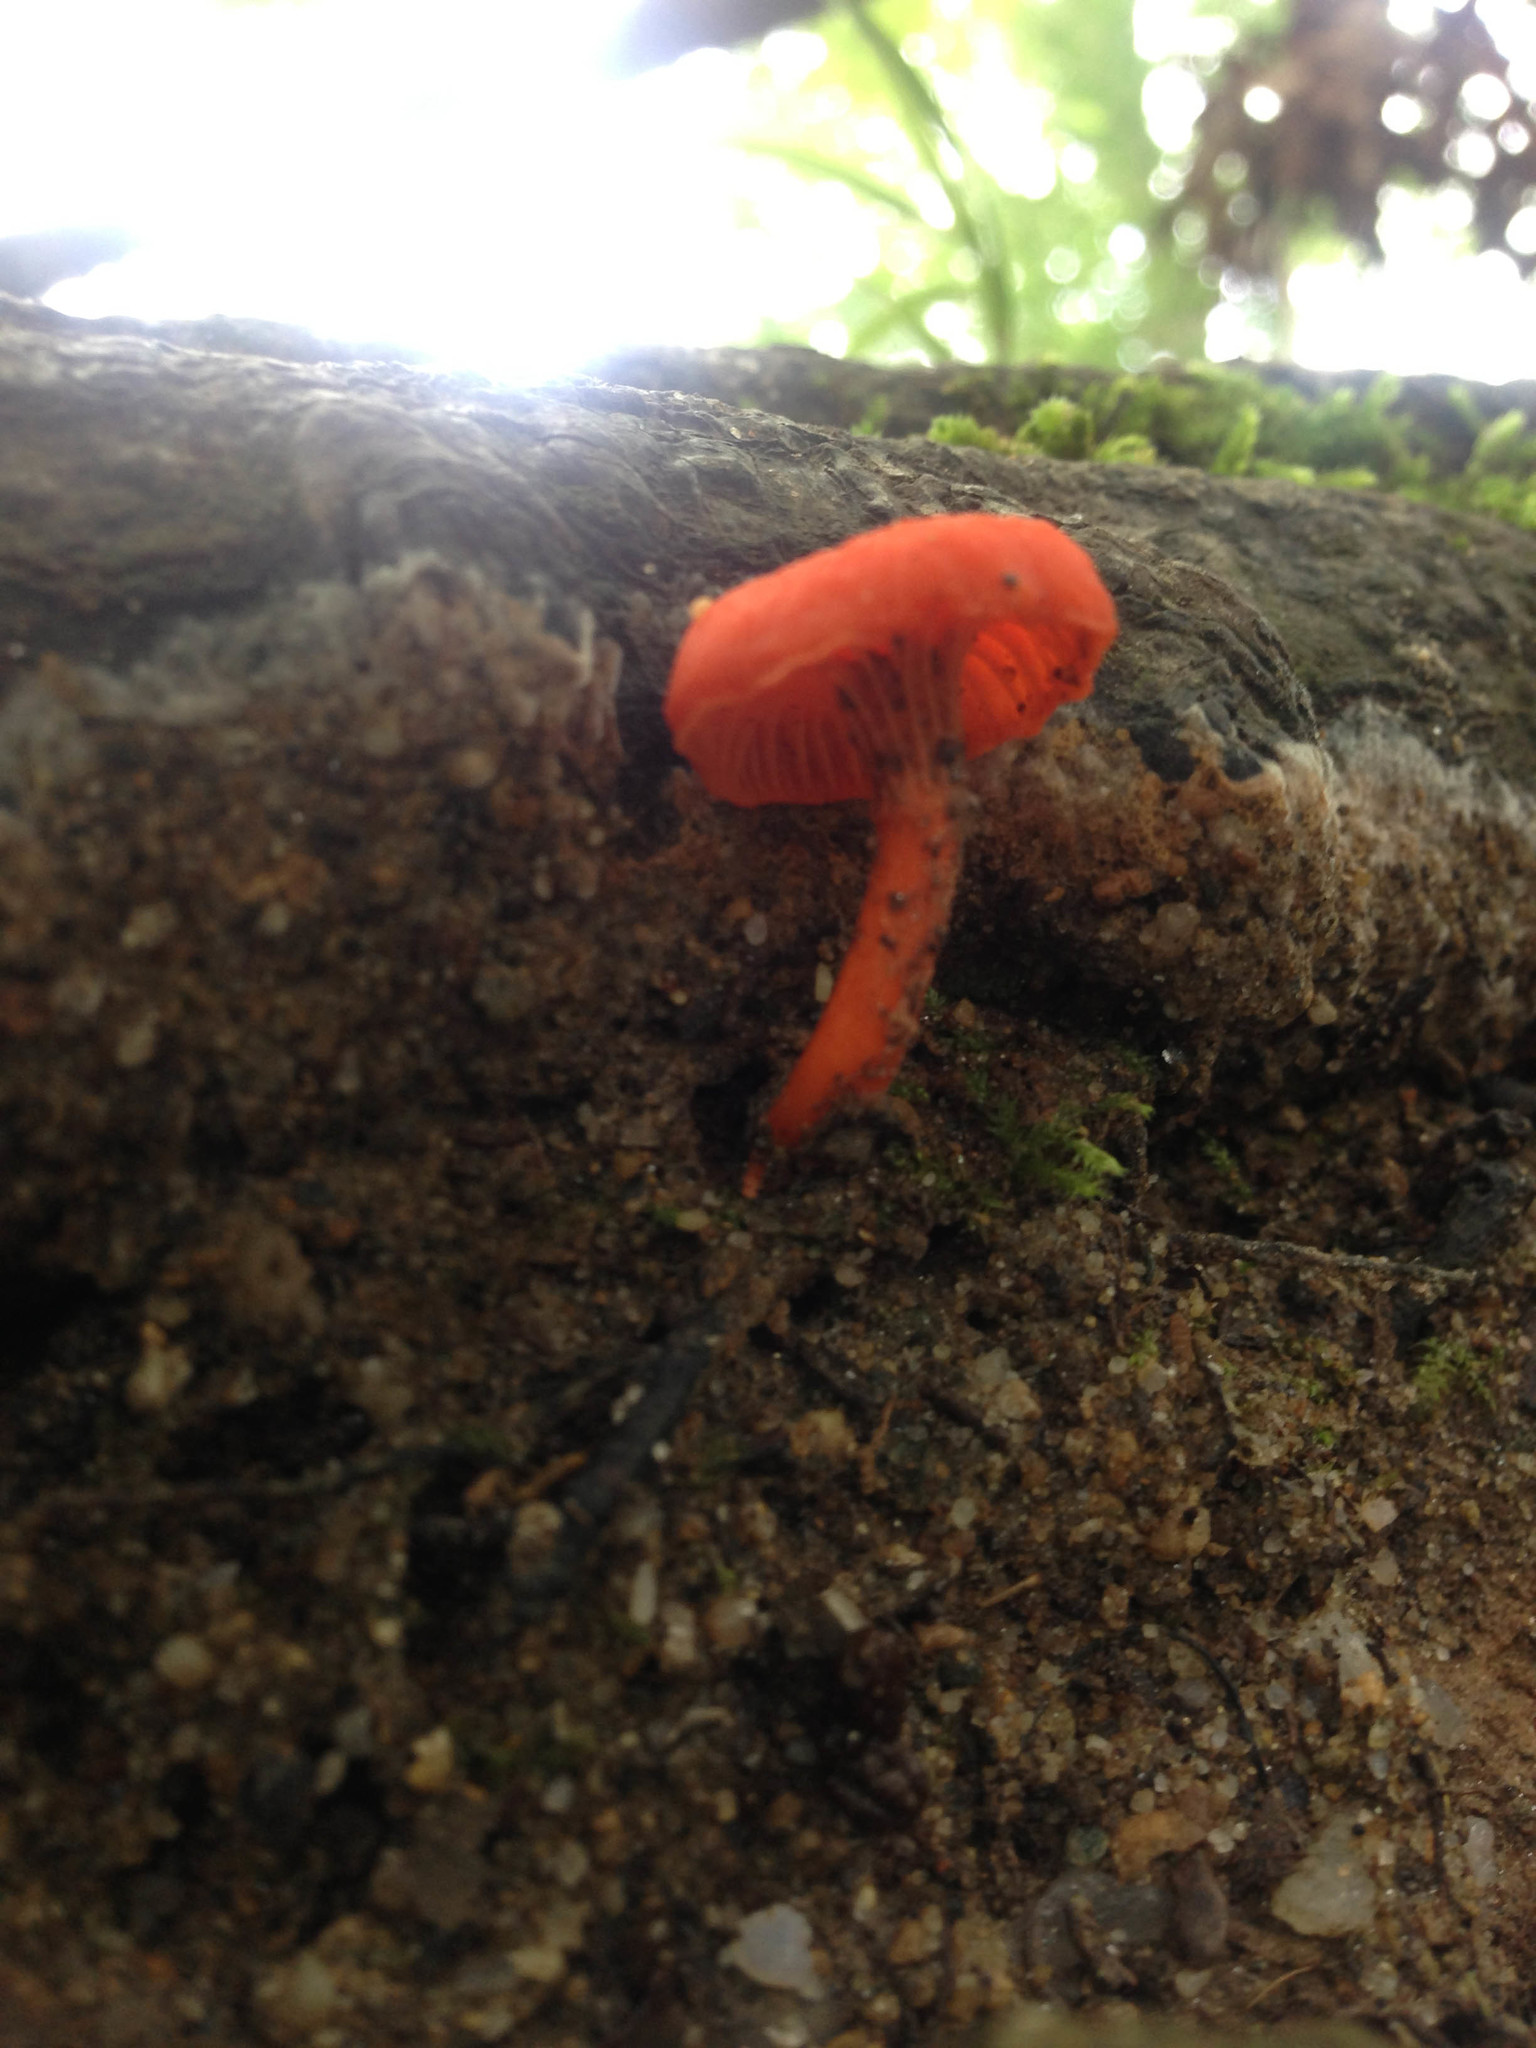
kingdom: Fungi
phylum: Basidiomycota
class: Agaricomycetes
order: Cantharellales
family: Hydnaceae
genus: Cantharellus
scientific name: Cantharellus cinnabarinus
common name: Cinnabar chanterelle
